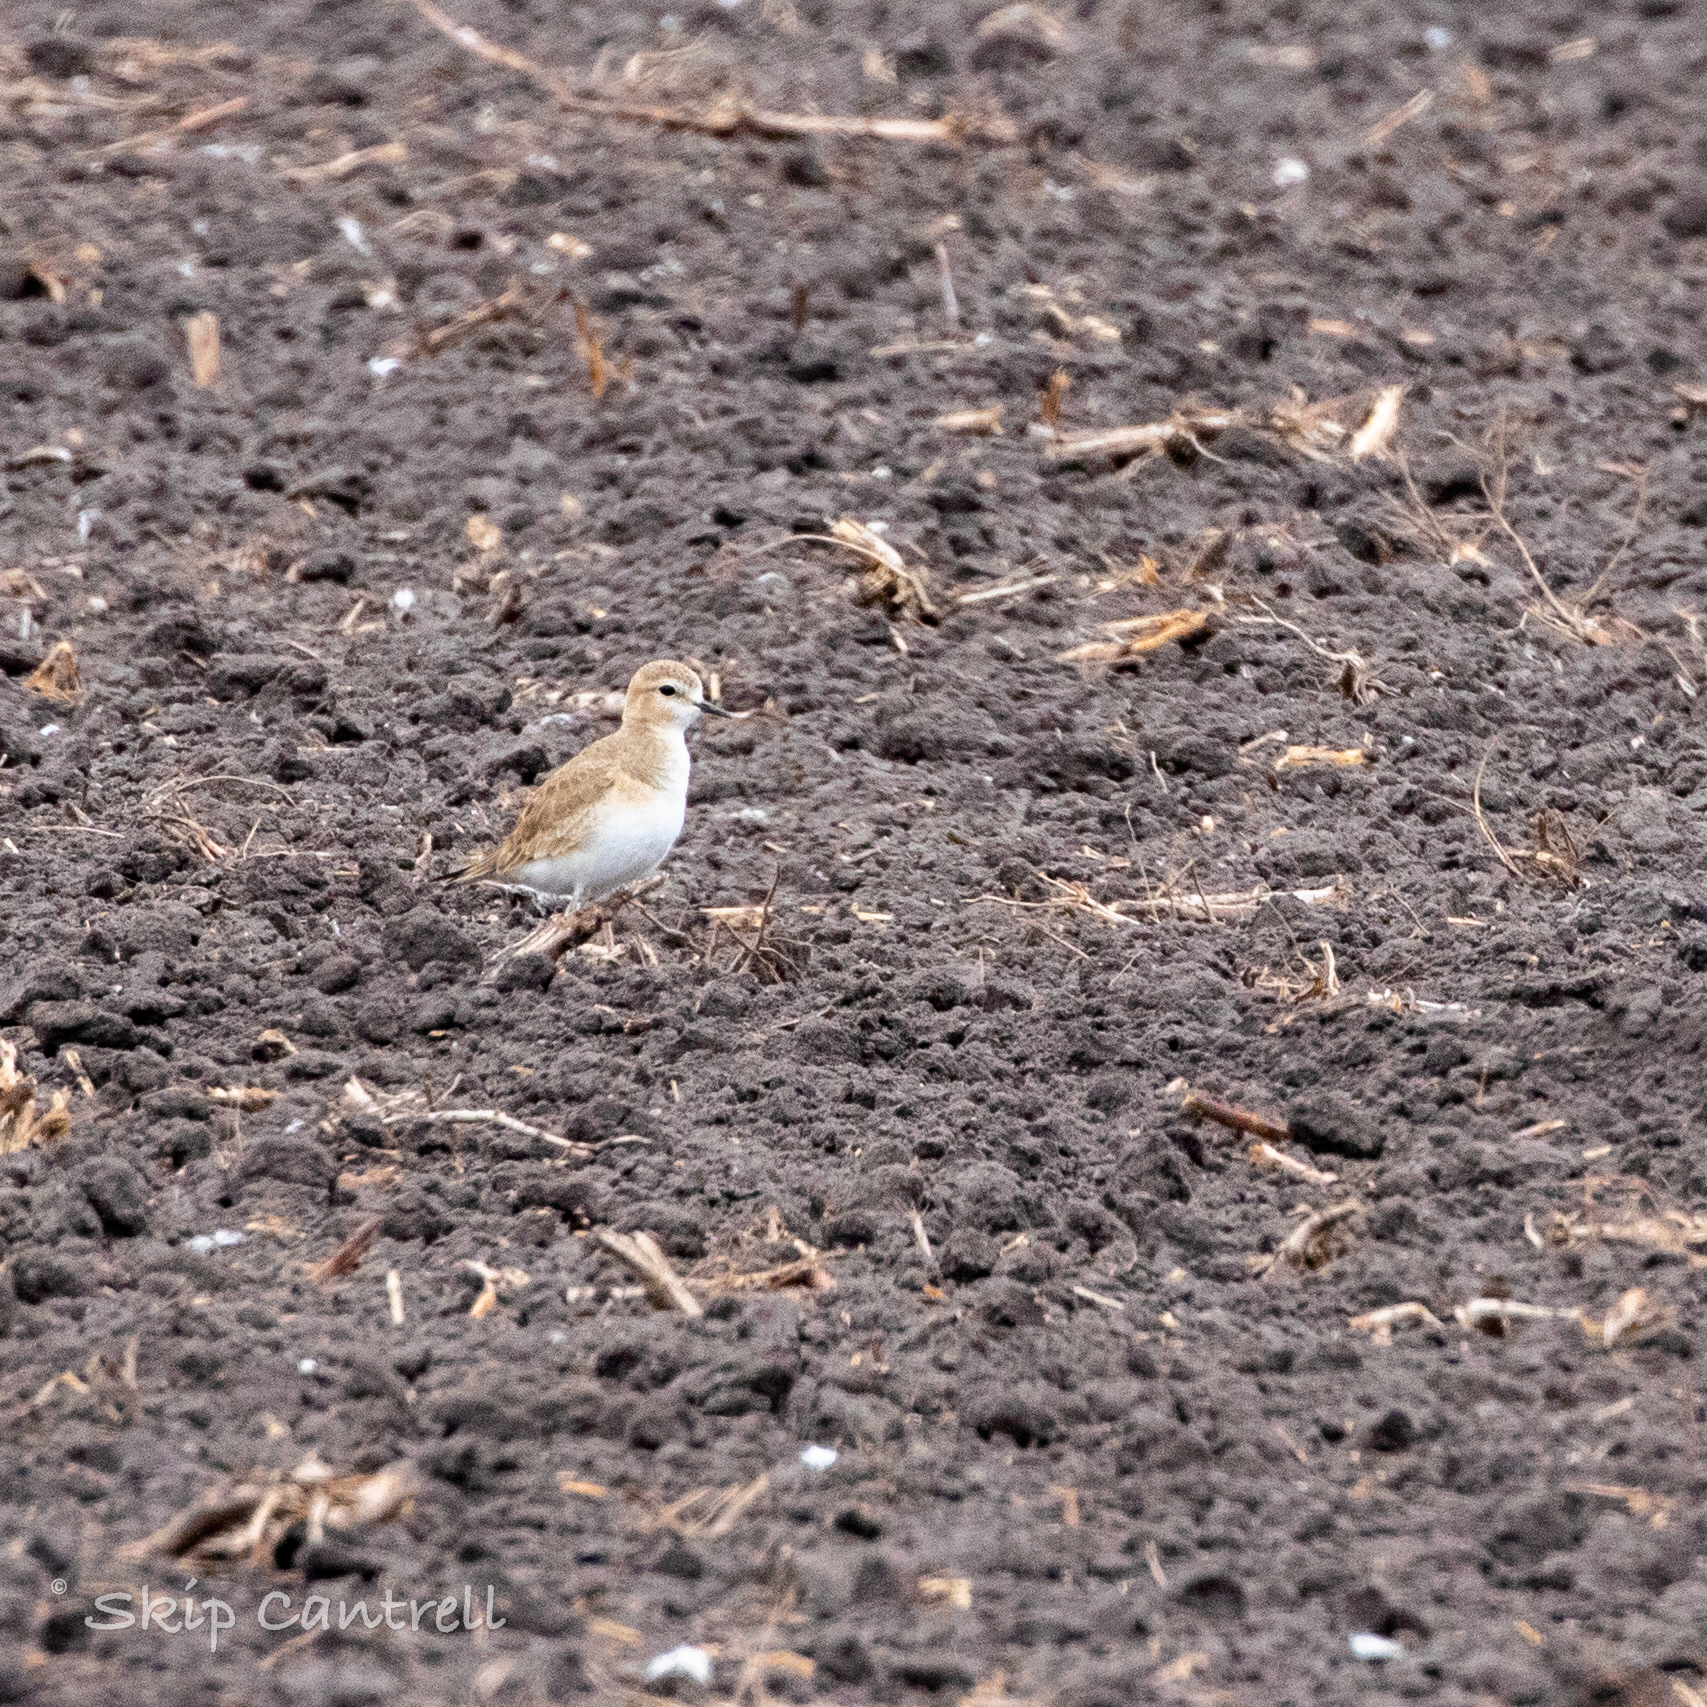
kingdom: Animalia
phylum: Chordata
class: Aves
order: Charadriiformes
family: Charadriidae
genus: Anarhynchus
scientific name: Anarhynchus
